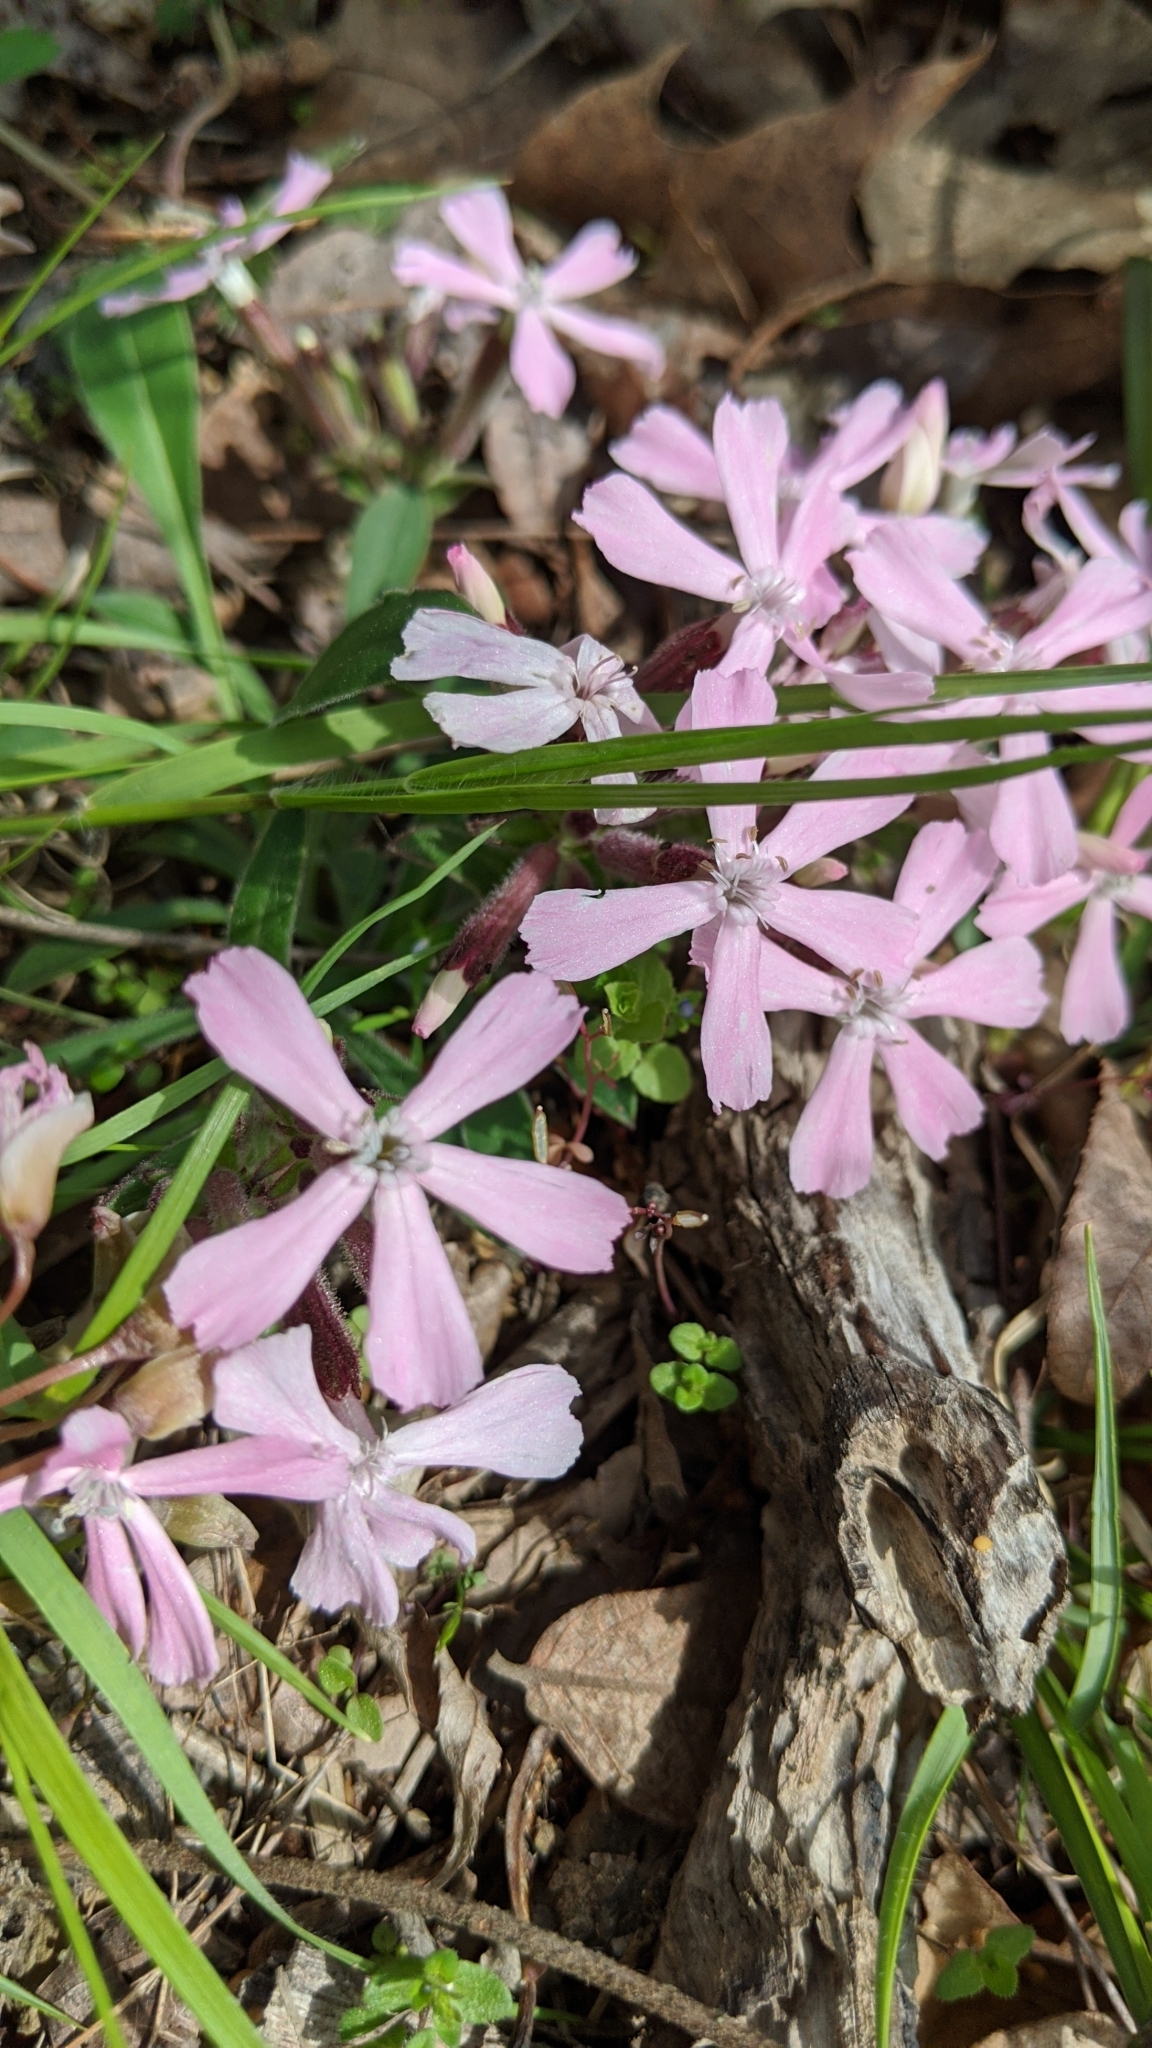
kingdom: Plantae
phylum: Tracheophyta
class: Magnoliopsida
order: Caryophyllales
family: Caryophyllaceae
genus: Silene
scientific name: Silene caroliniana
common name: Sticky catchfly
